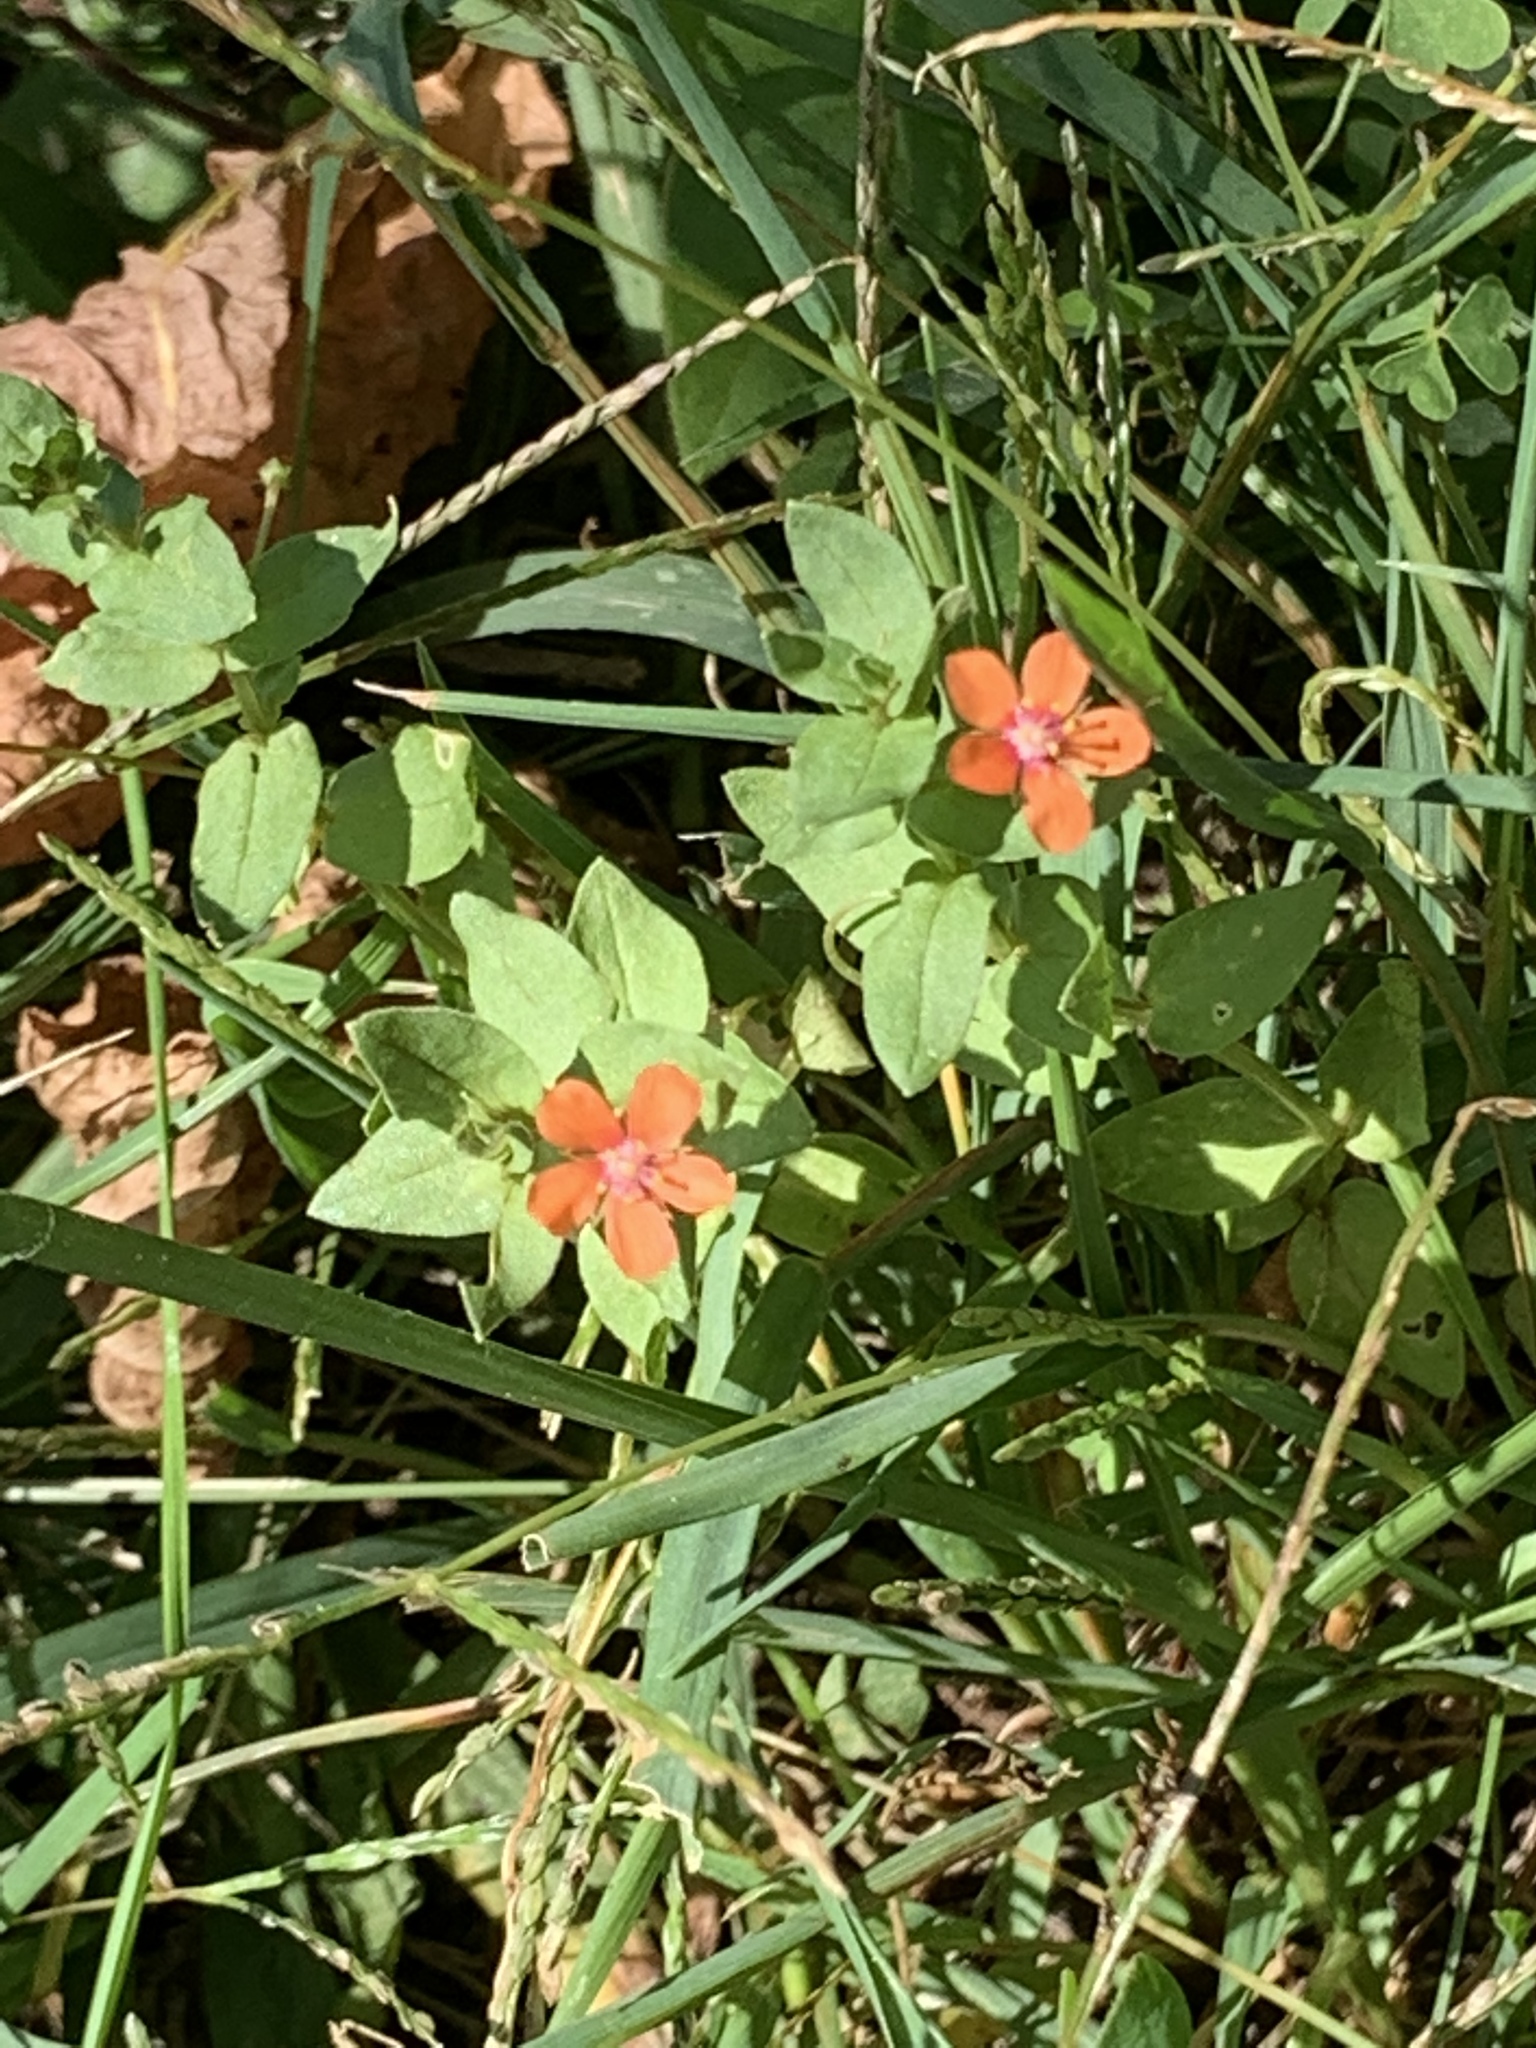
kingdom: Plantae
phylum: Tracheophyta
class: Magnoliopsida
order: Ericales
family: Primulaceae
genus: Lysimachia
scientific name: Lysimachia arvensis
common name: Scarlet pimpernel
